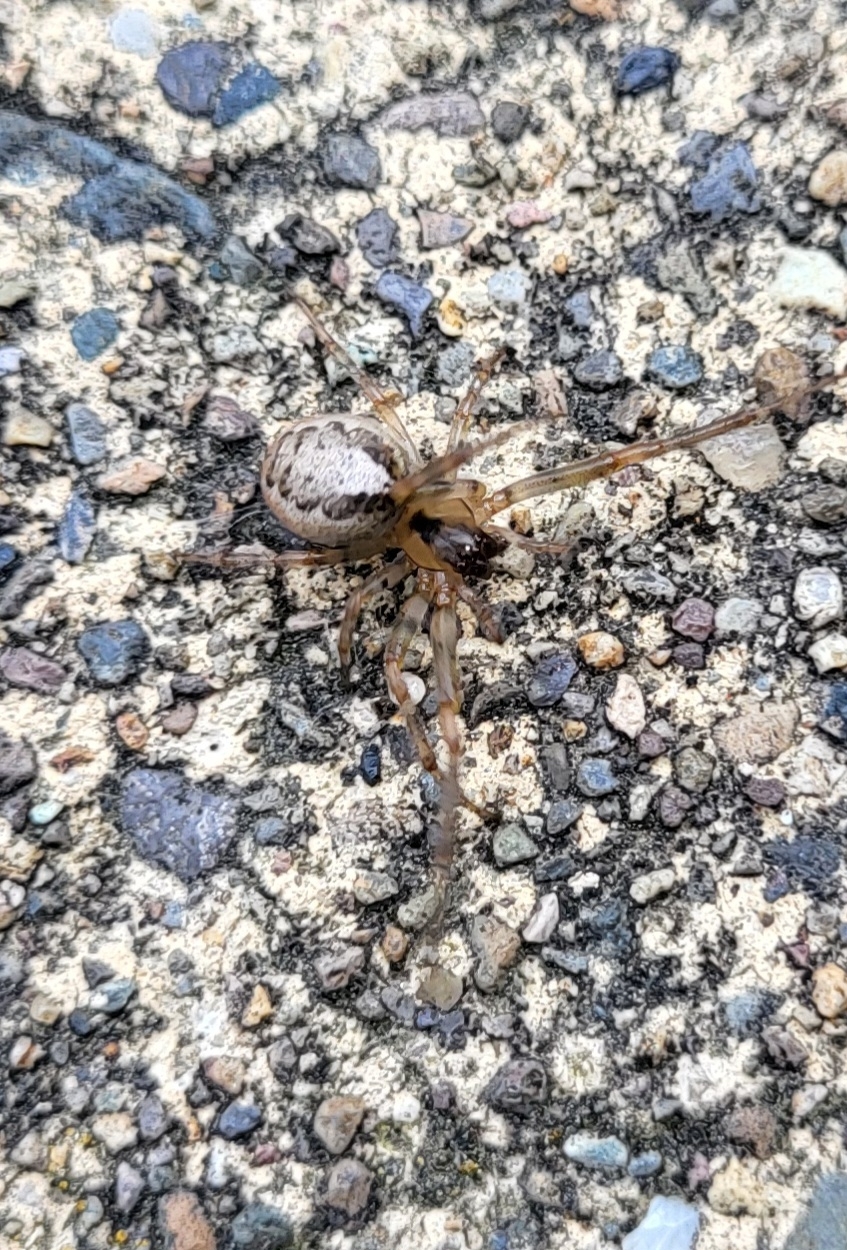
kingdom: Animalia
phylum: Arthropoda
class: Arachnida
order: Araneae
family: Araneidae
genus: Zygiella
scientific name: Zygiella x-notata
